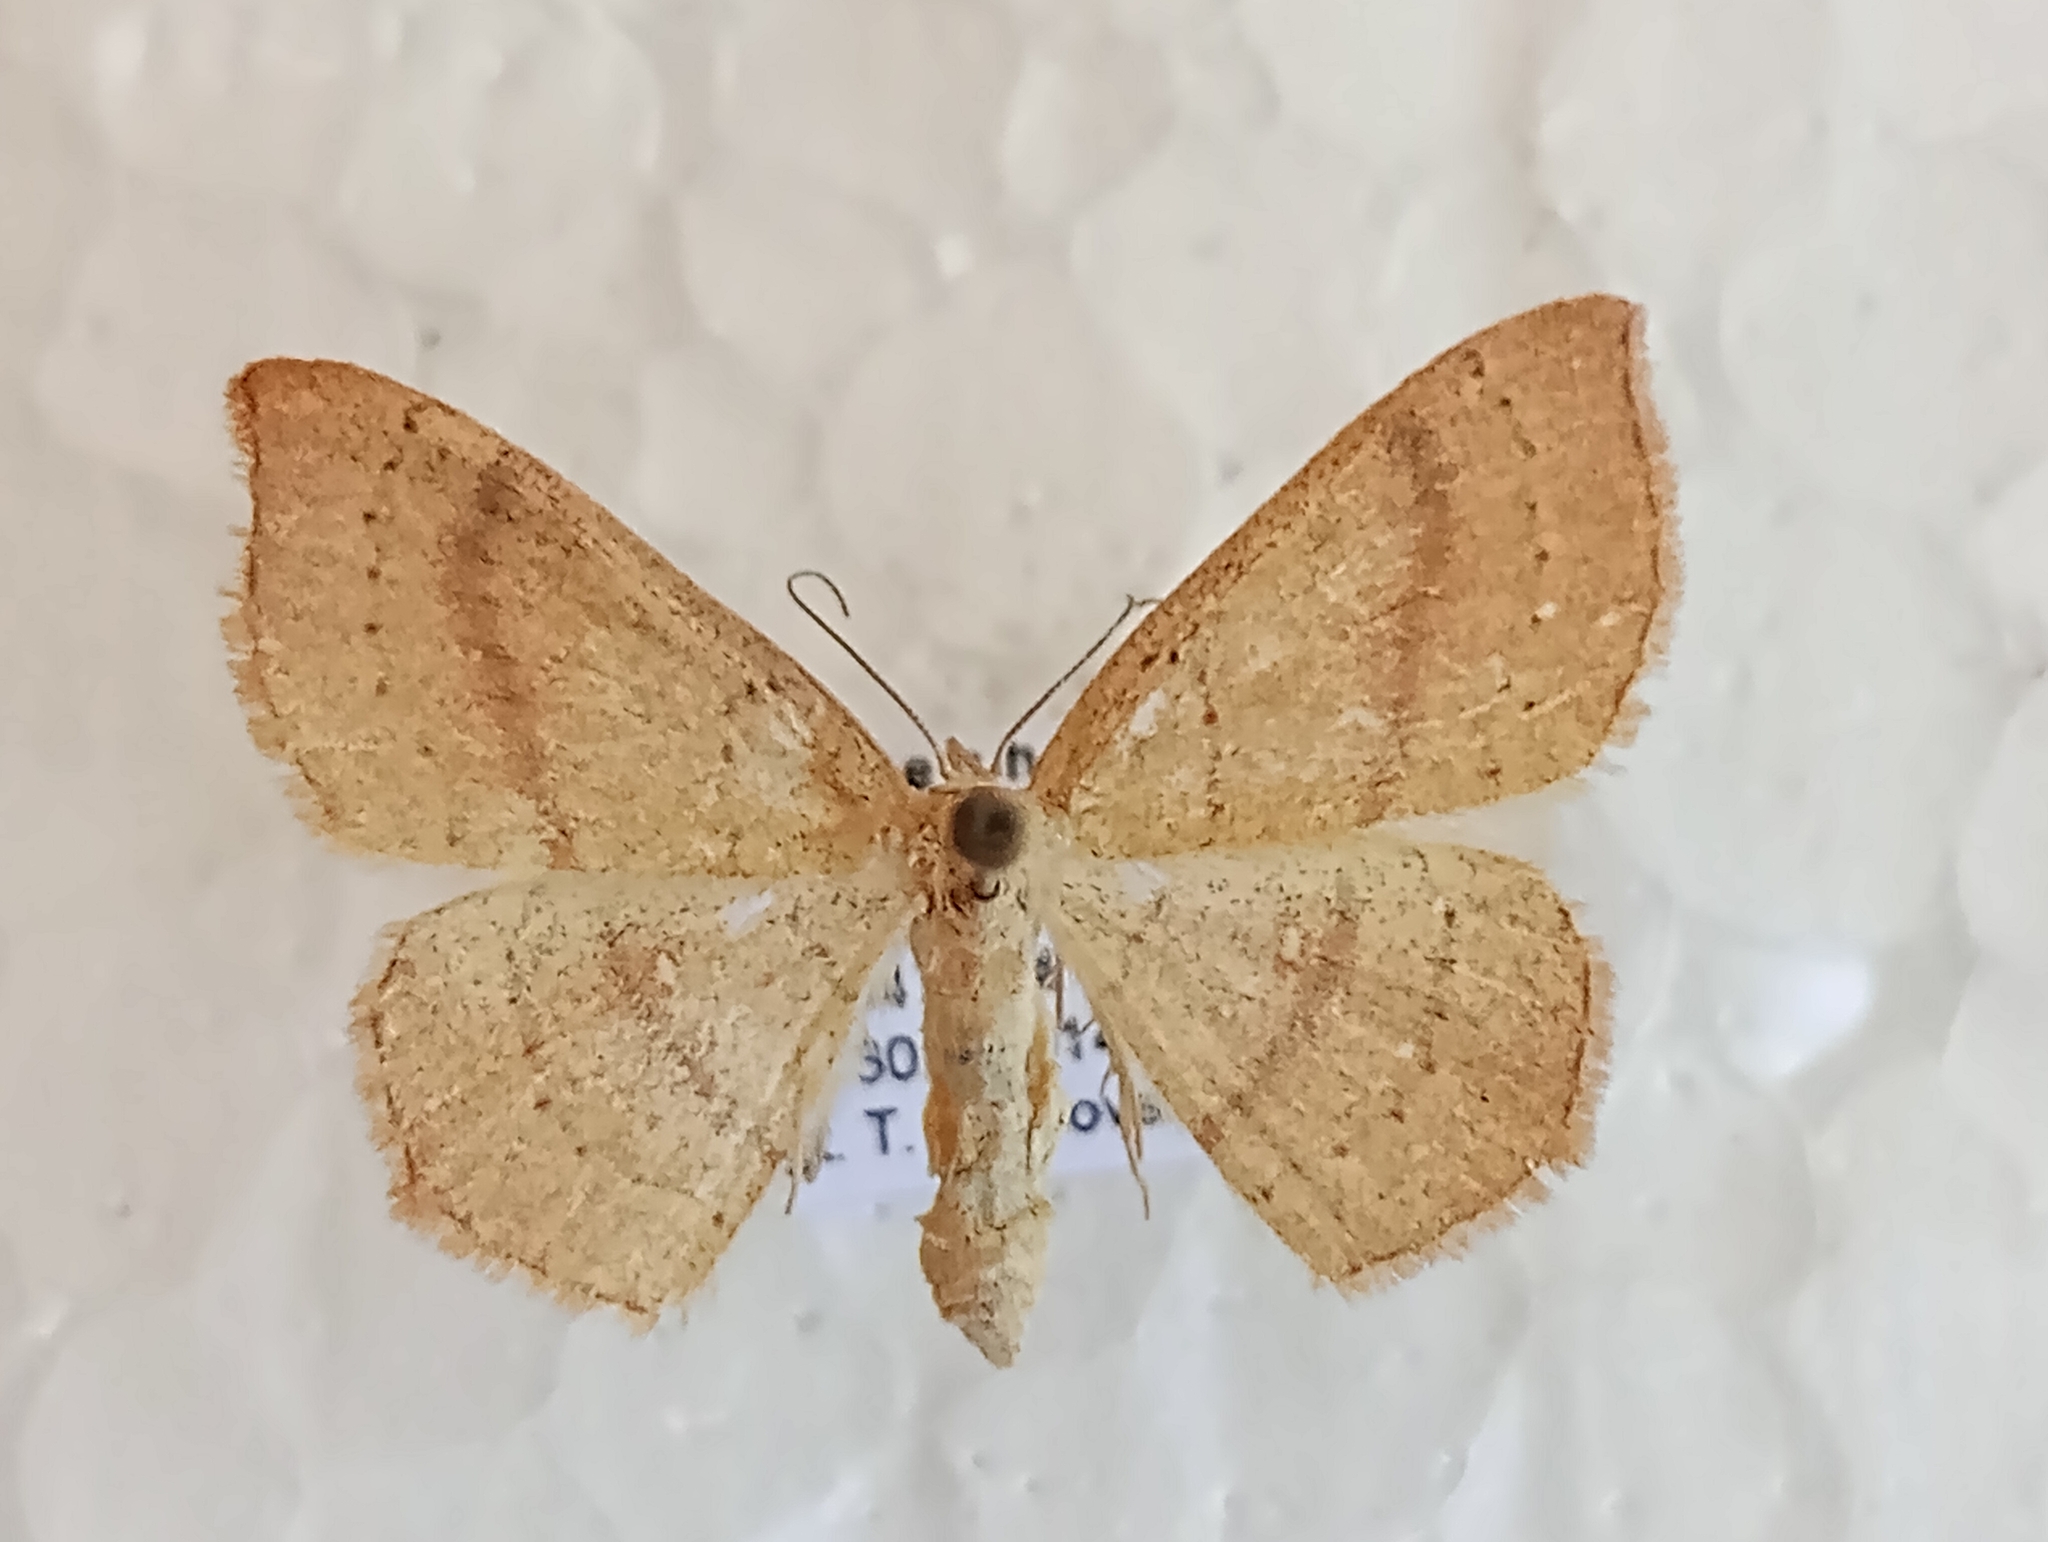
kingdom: Animalia
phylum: Arthropoda
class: Insecta
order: Lepidoptera
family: Geometridae
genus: Cyclophora
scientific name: Cyclophora linearia
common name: Clay triple-lines
